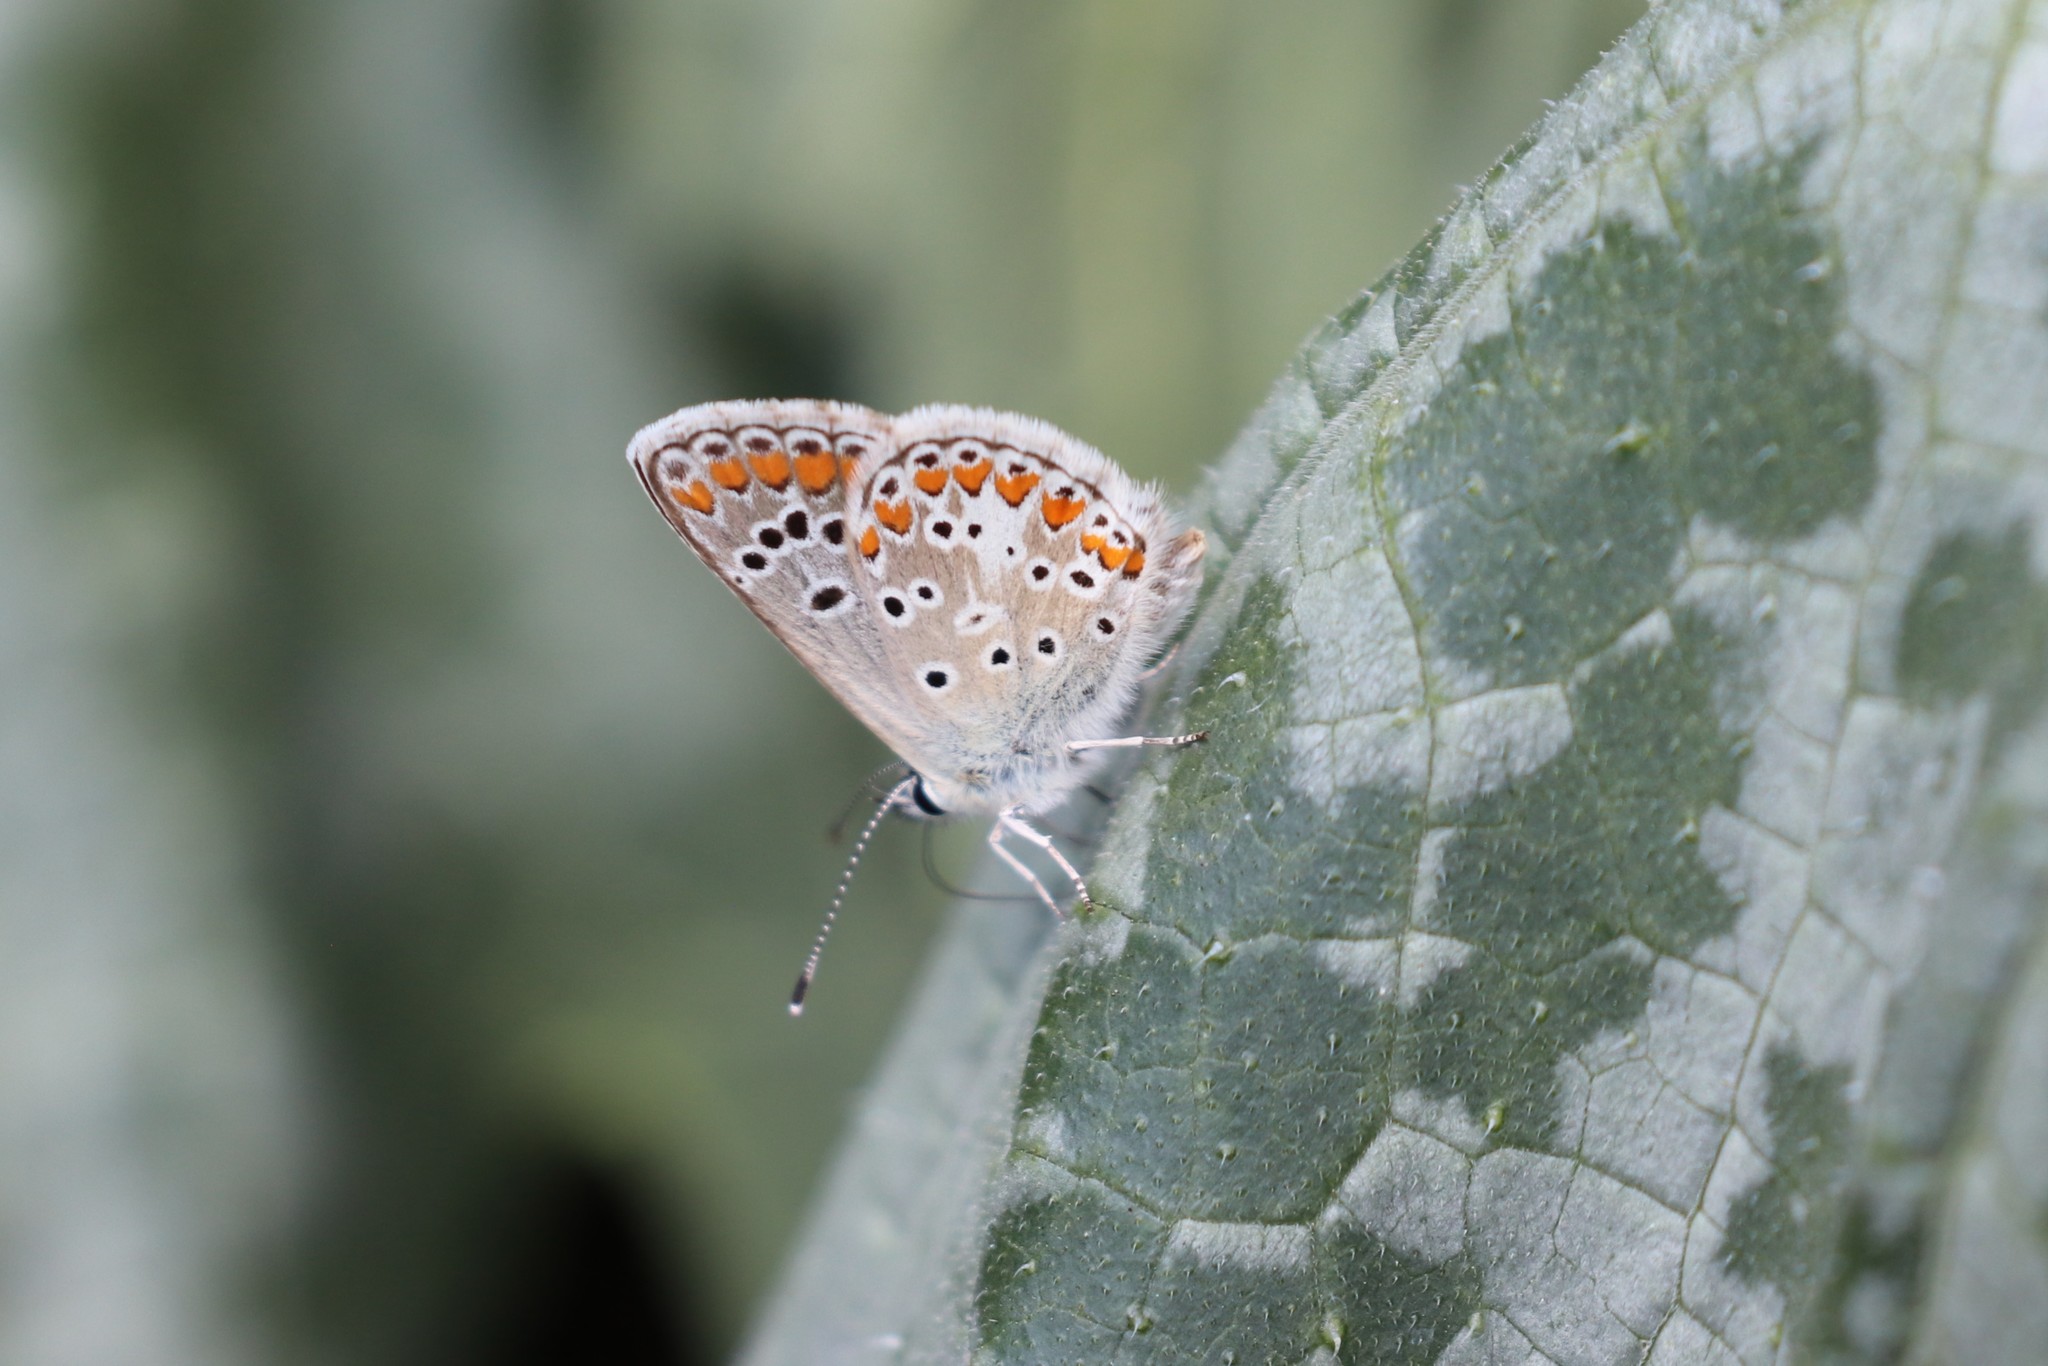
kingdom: Animalia
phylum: Arthropoda
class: Insecta
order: Lepidoptera
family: Lycaenidae
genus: Aricia
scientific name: Aricia agestis
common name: Brown argus
